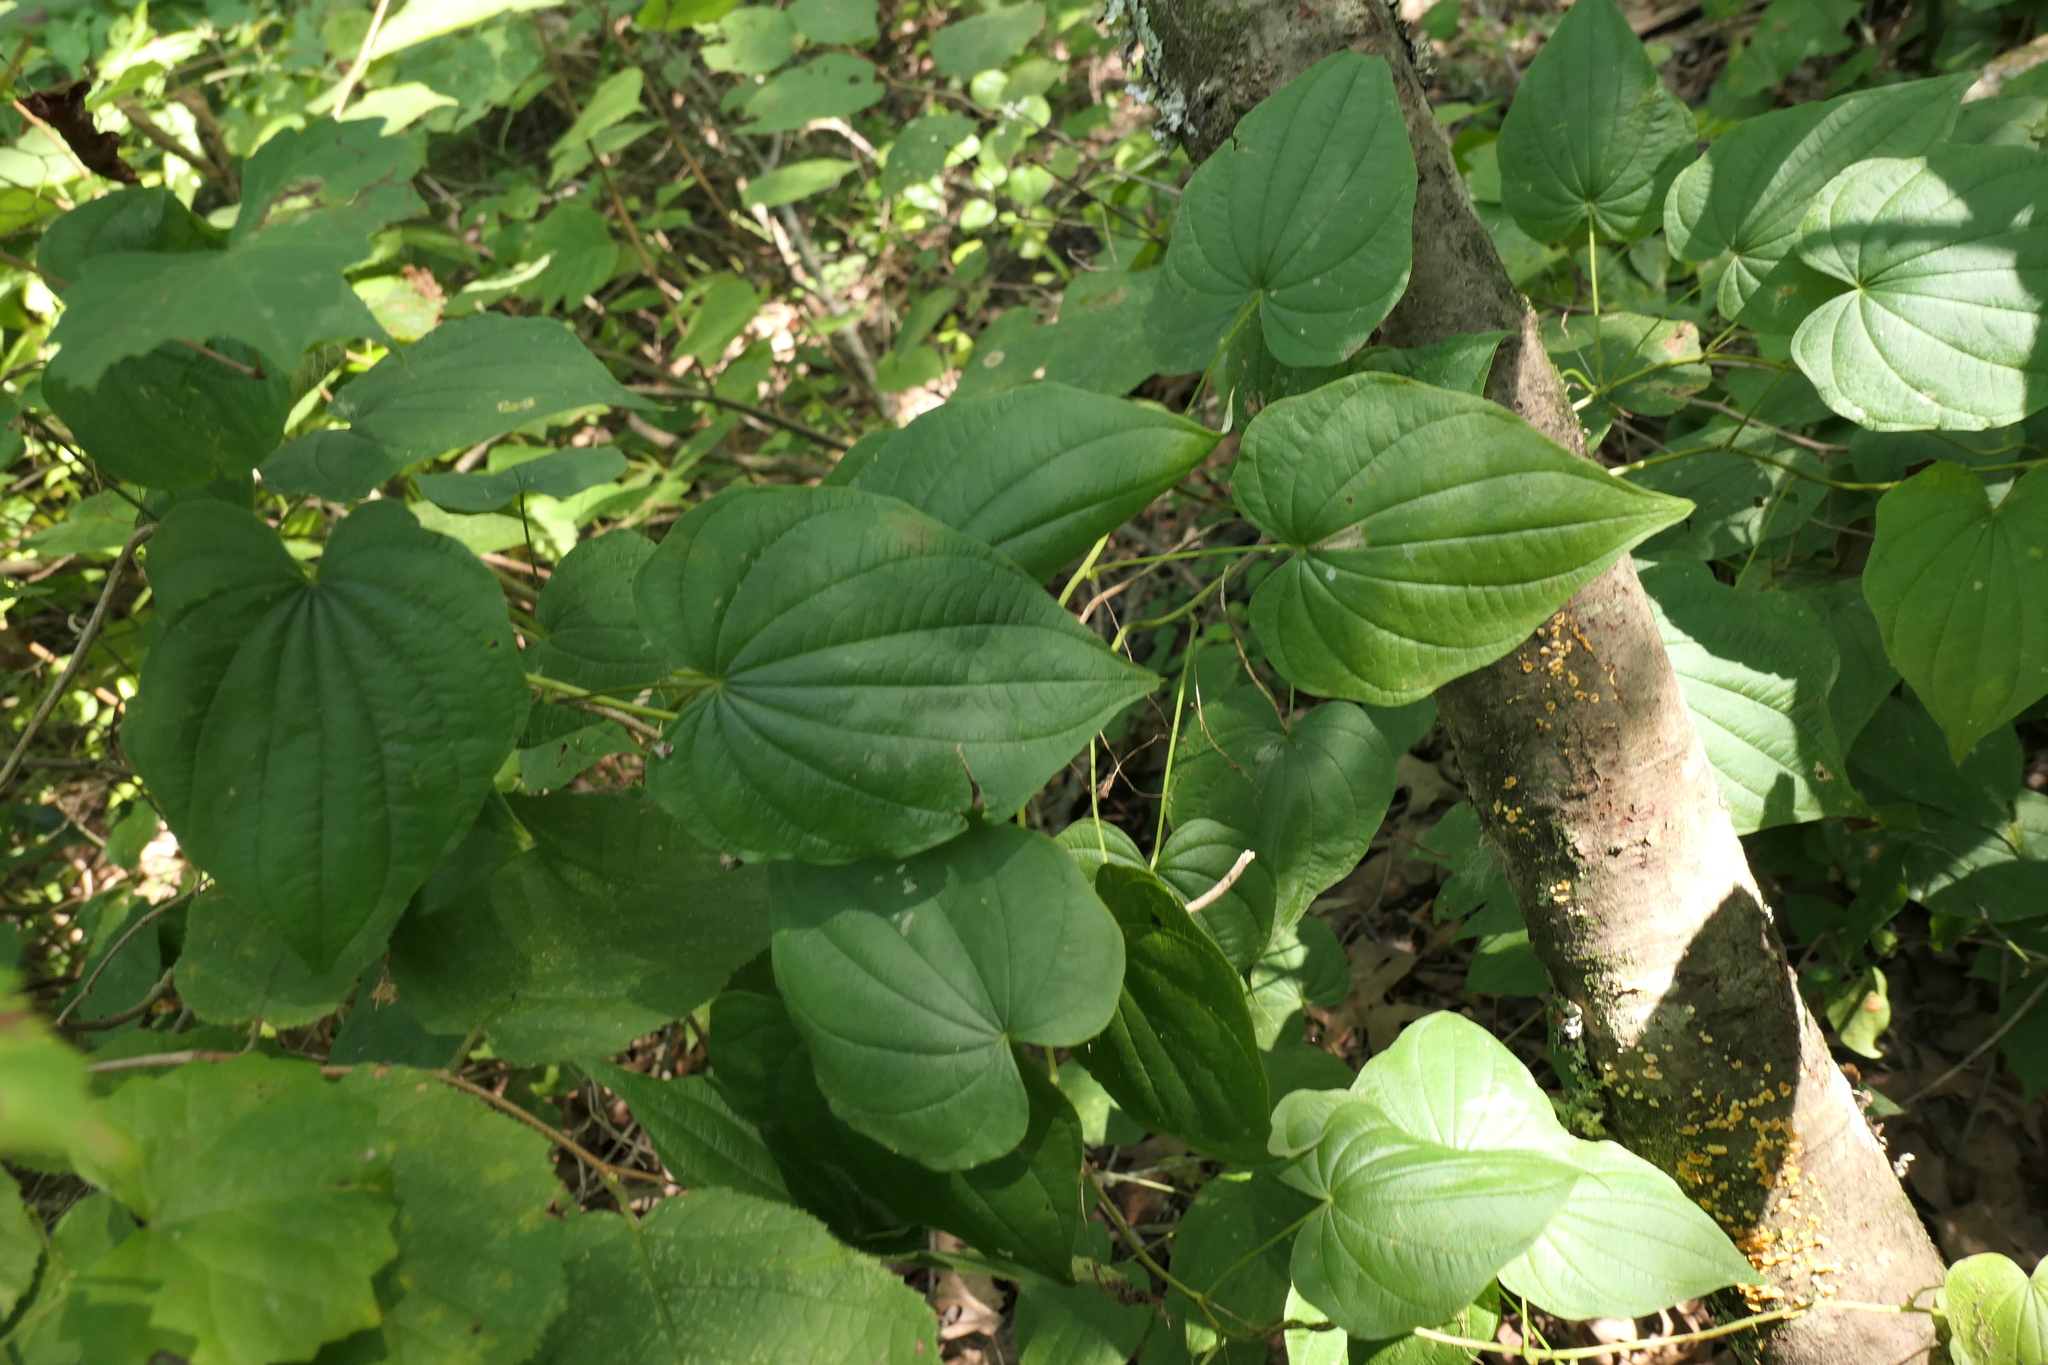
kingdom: Plantae
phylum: Tracheophyta
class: Liliopsida
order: Dioscoreales
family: Dioscoreaceae
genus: Dioscorea
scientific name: Dioscorea villosa
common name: Wild yam
